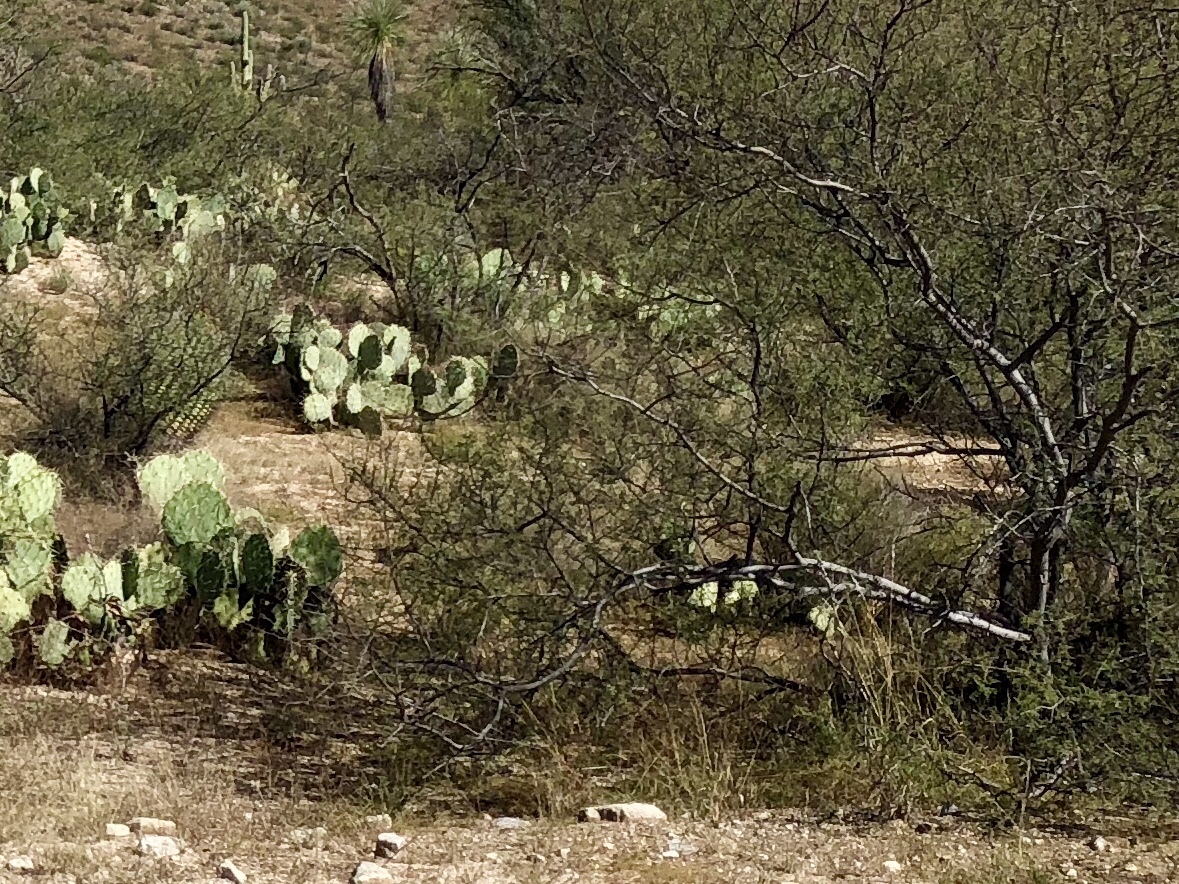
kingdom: Plantae
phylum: Tracheophyta
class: Magnoliopsida
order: Zygophyllales
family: Zygophyllaceae
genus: Larrea
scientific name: Larrea tridentata
